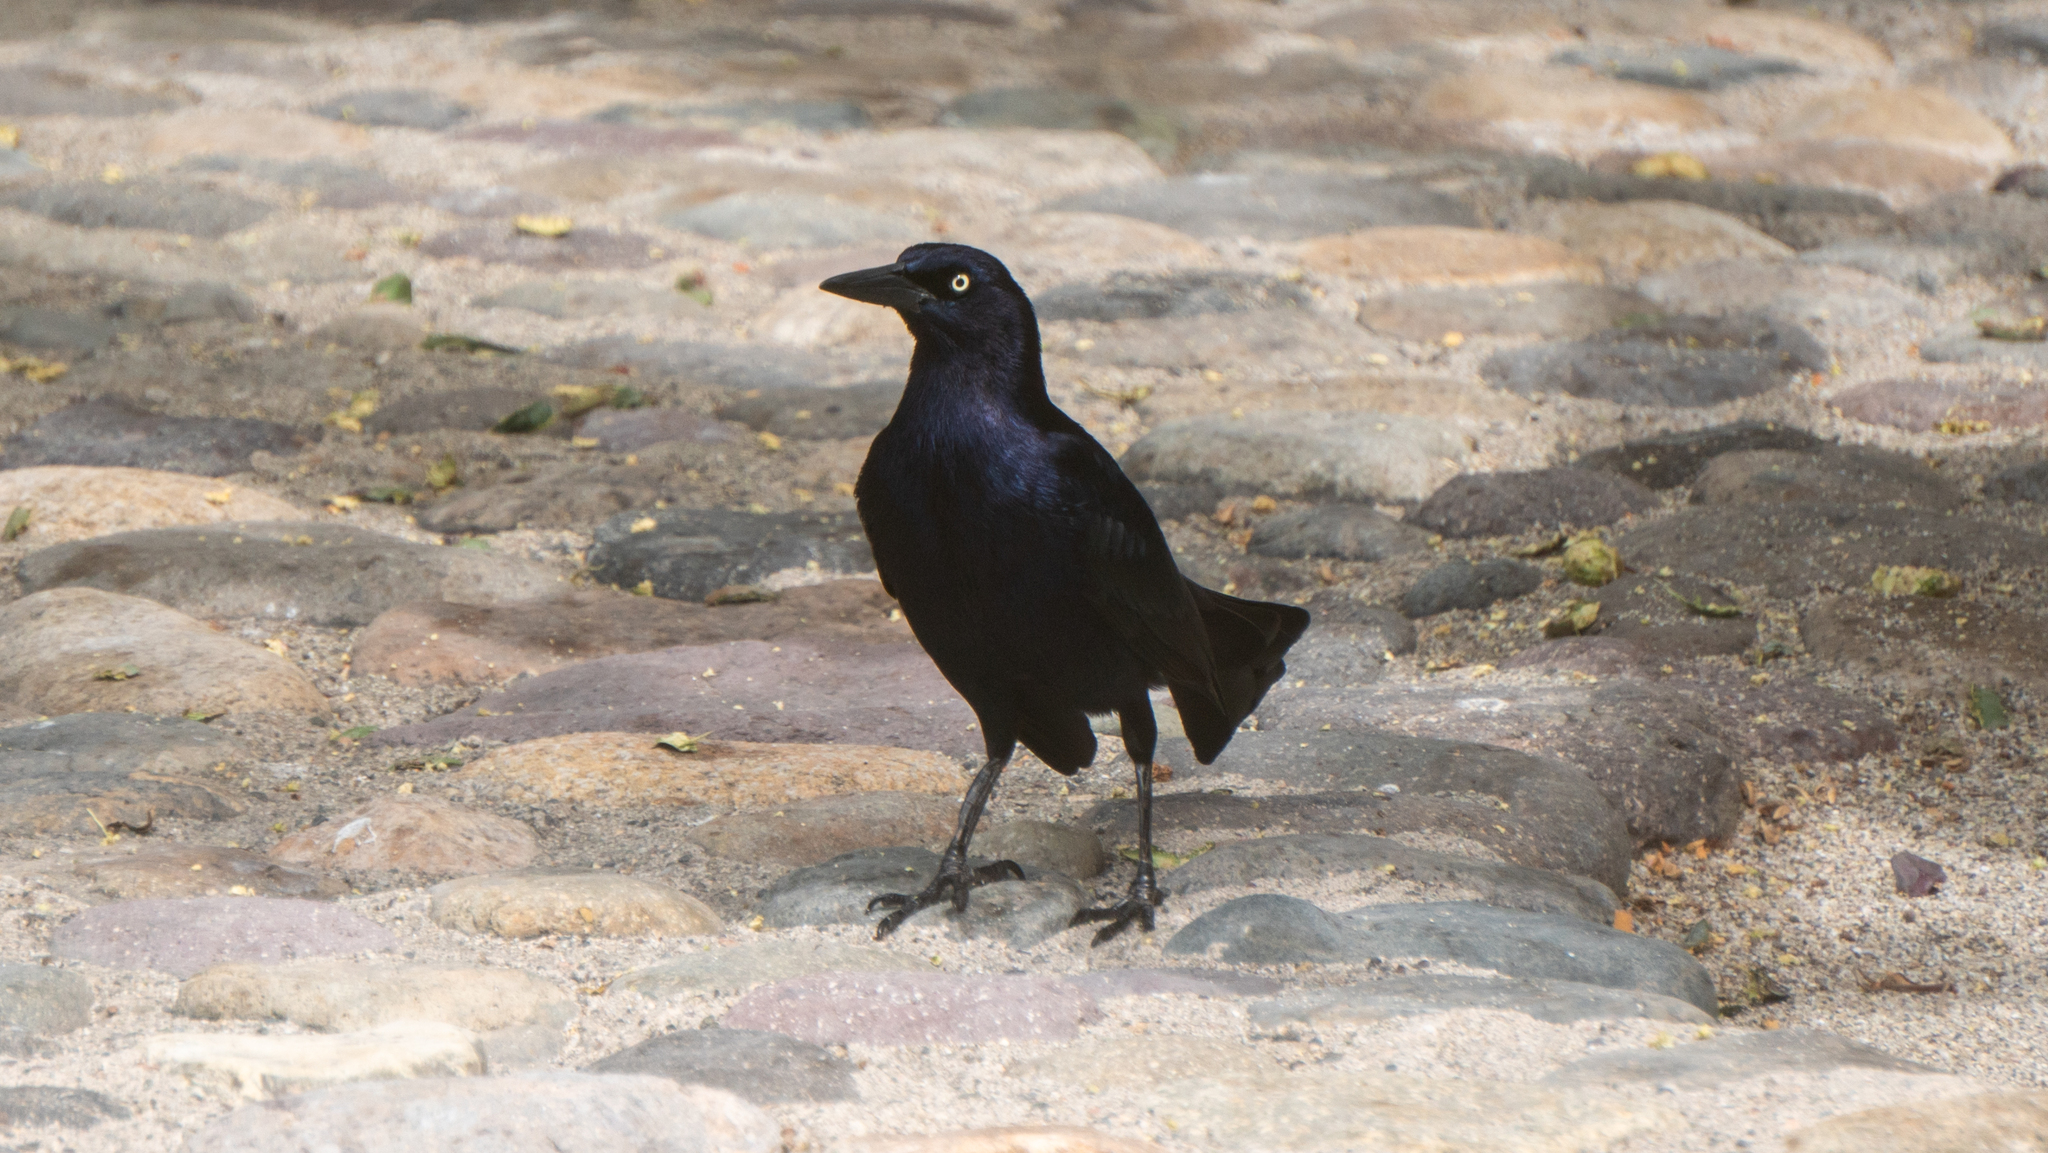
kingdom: Animalia
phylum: Chordata
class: Aves
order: Passeriformes
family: Icteridae
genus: Quiscalus
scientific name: Quiscalus mexicanus
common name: Great-tailed grackle
